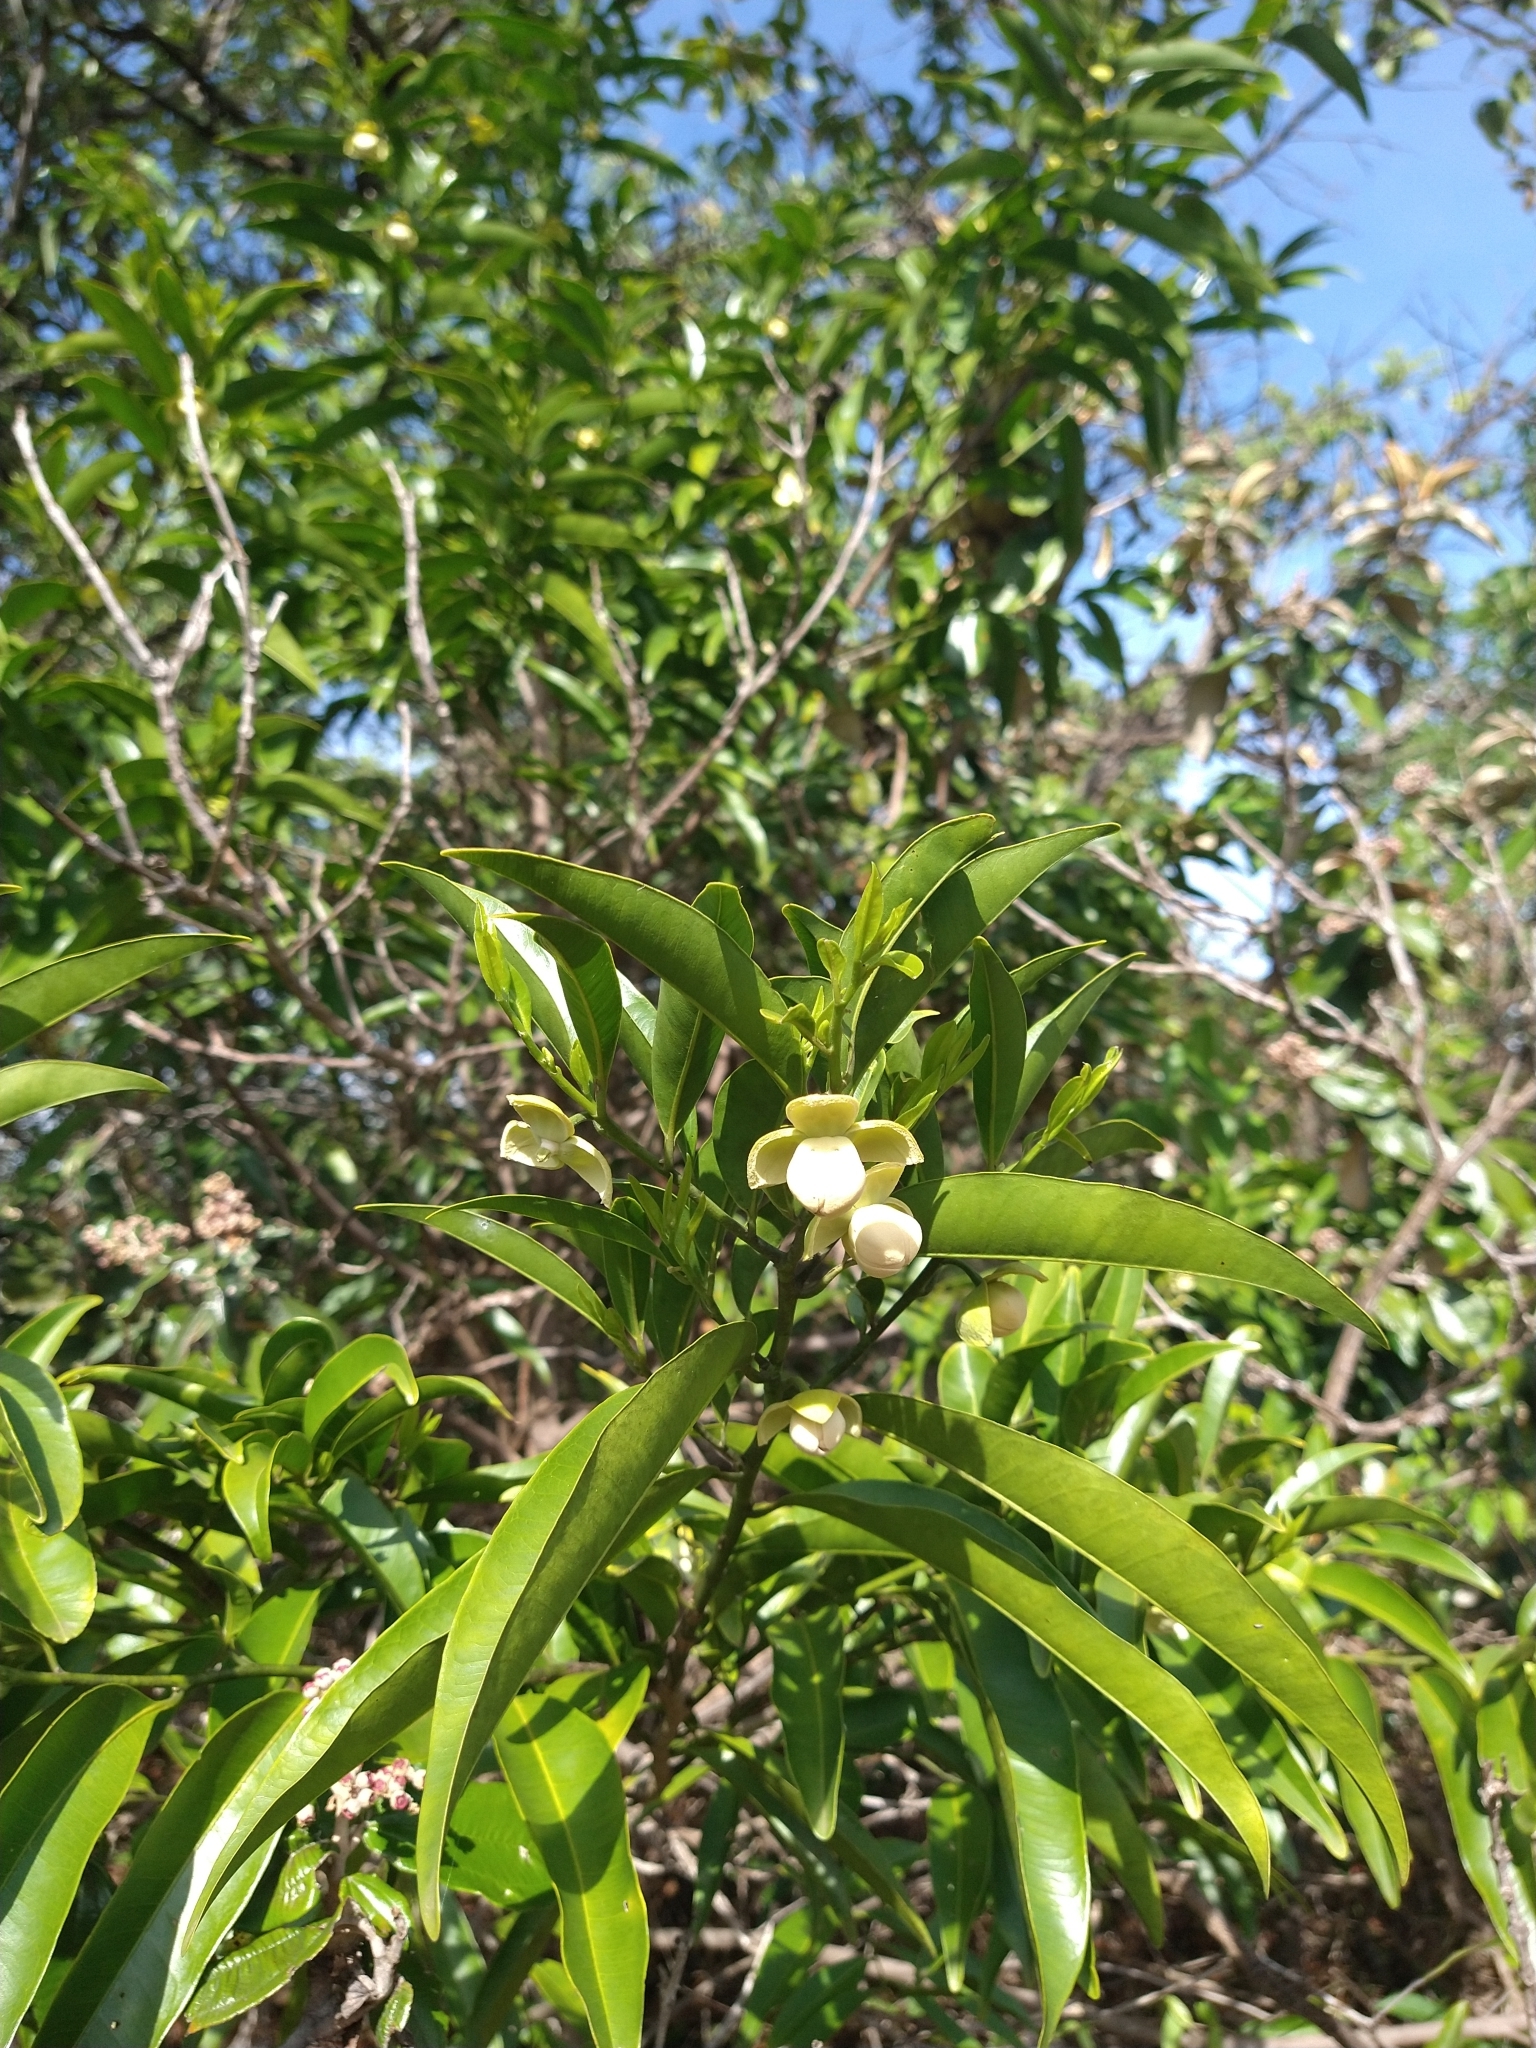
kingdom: Plantae
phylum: Tracheophyta
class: Magnoliopsida
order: Magnoliales
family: Annonaceae
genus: Cardiopetalum
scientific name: Cardiopetalum calophyllum
